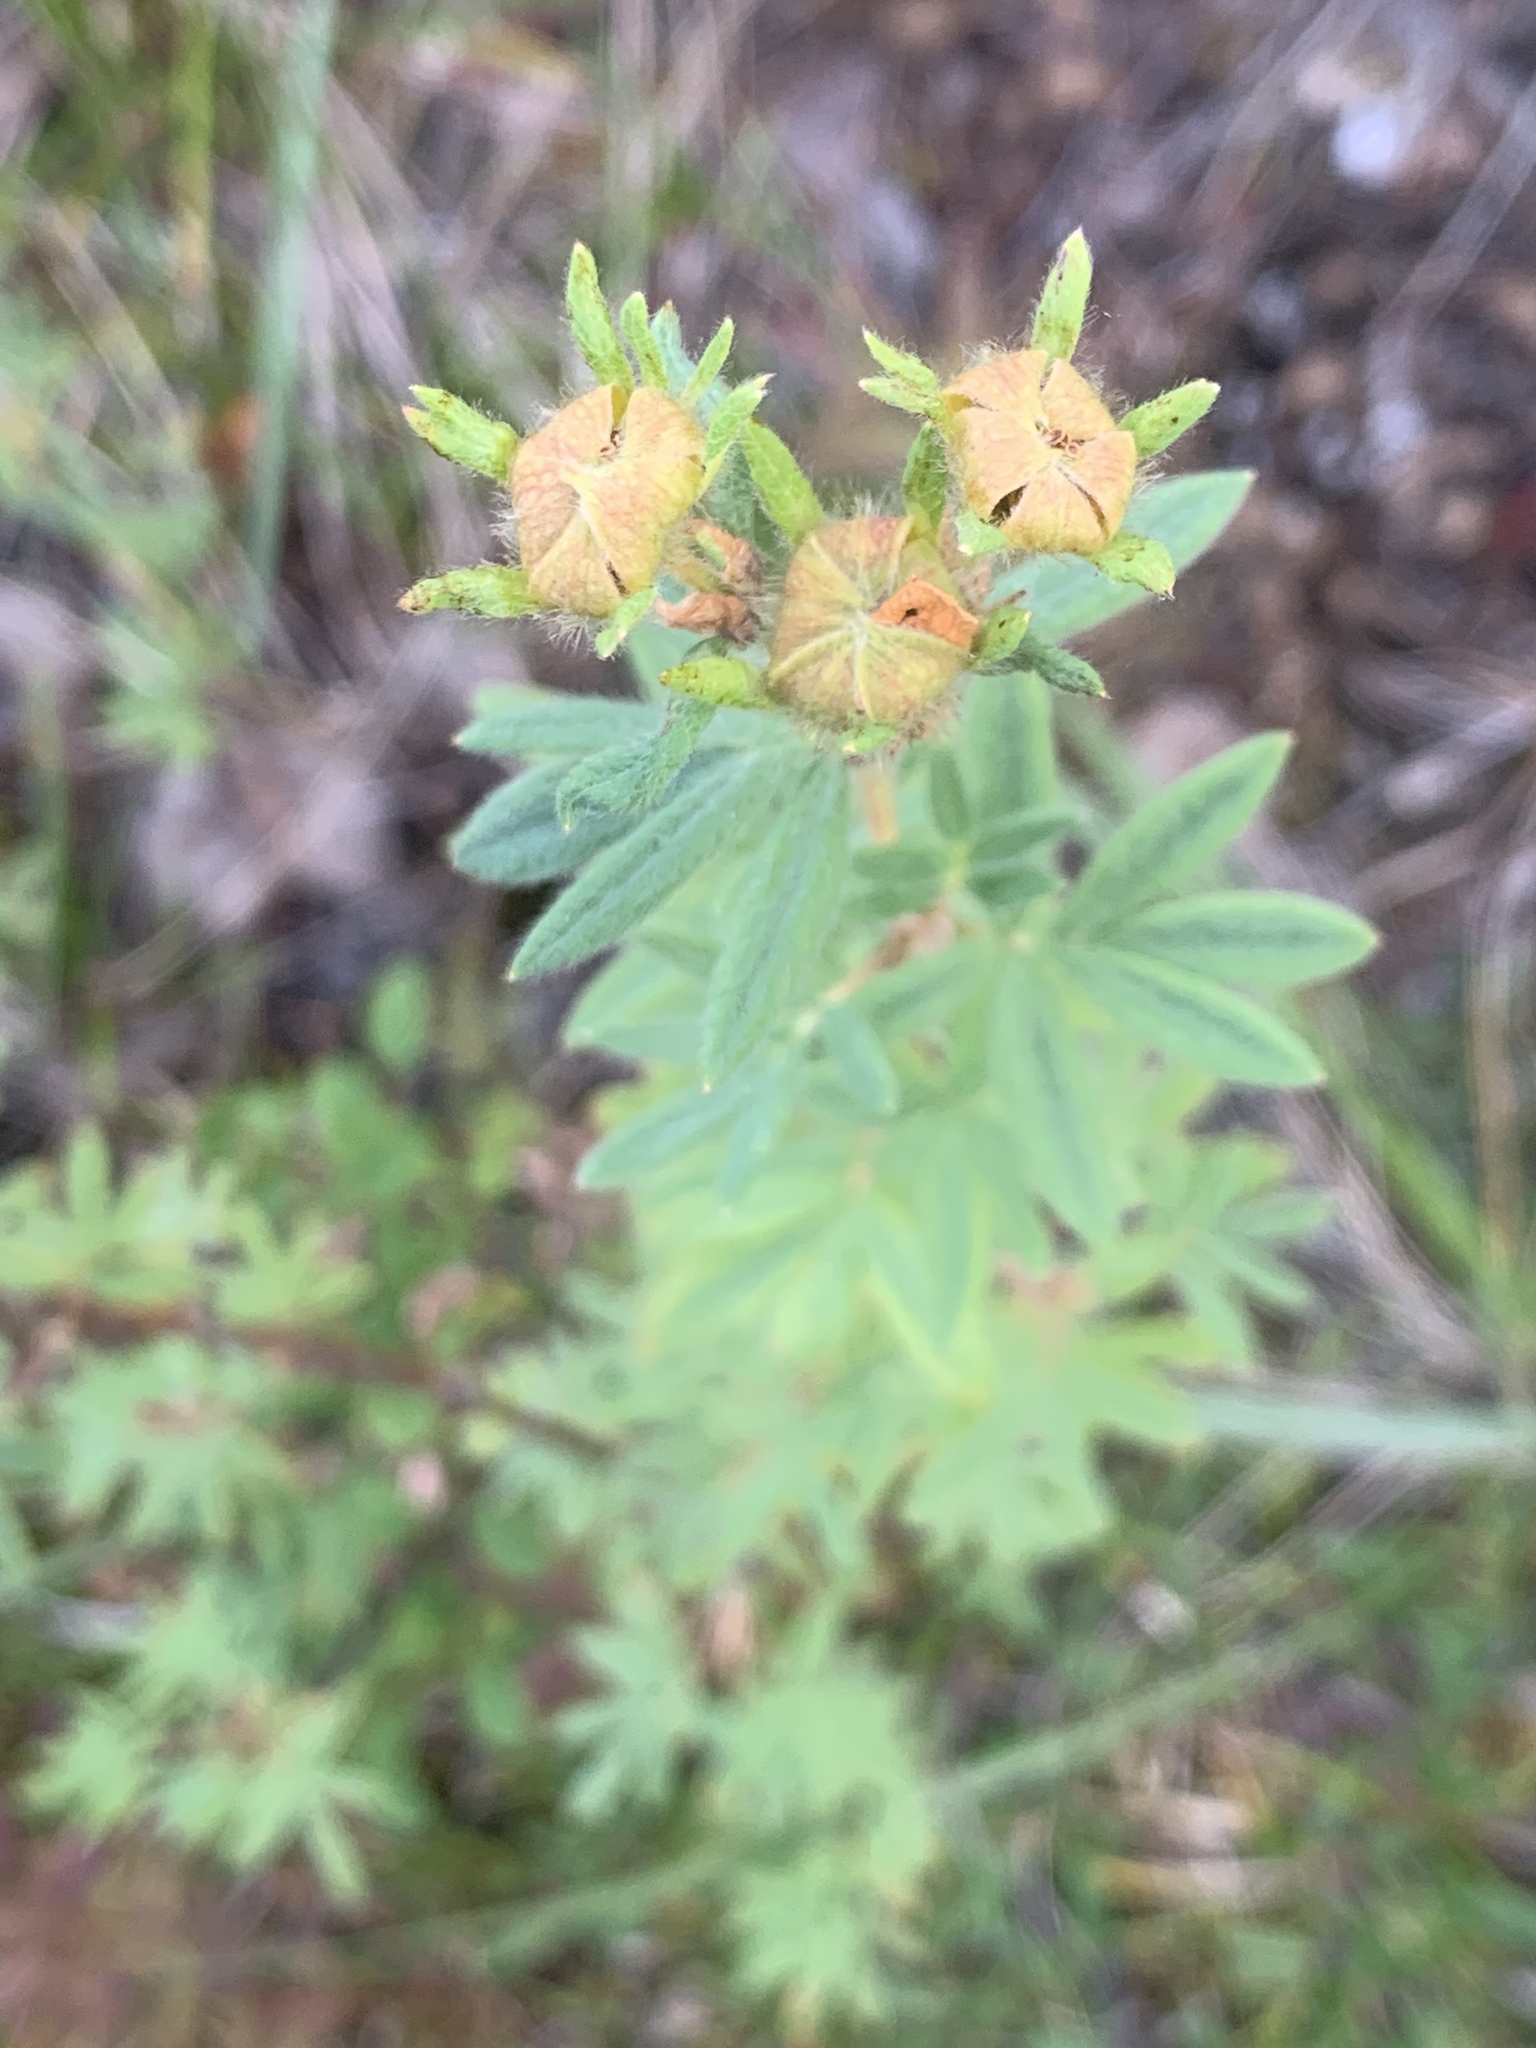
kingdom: Plantae
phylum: Tracheophyta
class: Magnoliopsida
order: Rosales
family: Rosaceae
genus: Dasiphora
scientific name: Dasiphora fruticosa
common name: Shrubby cinquefoil
